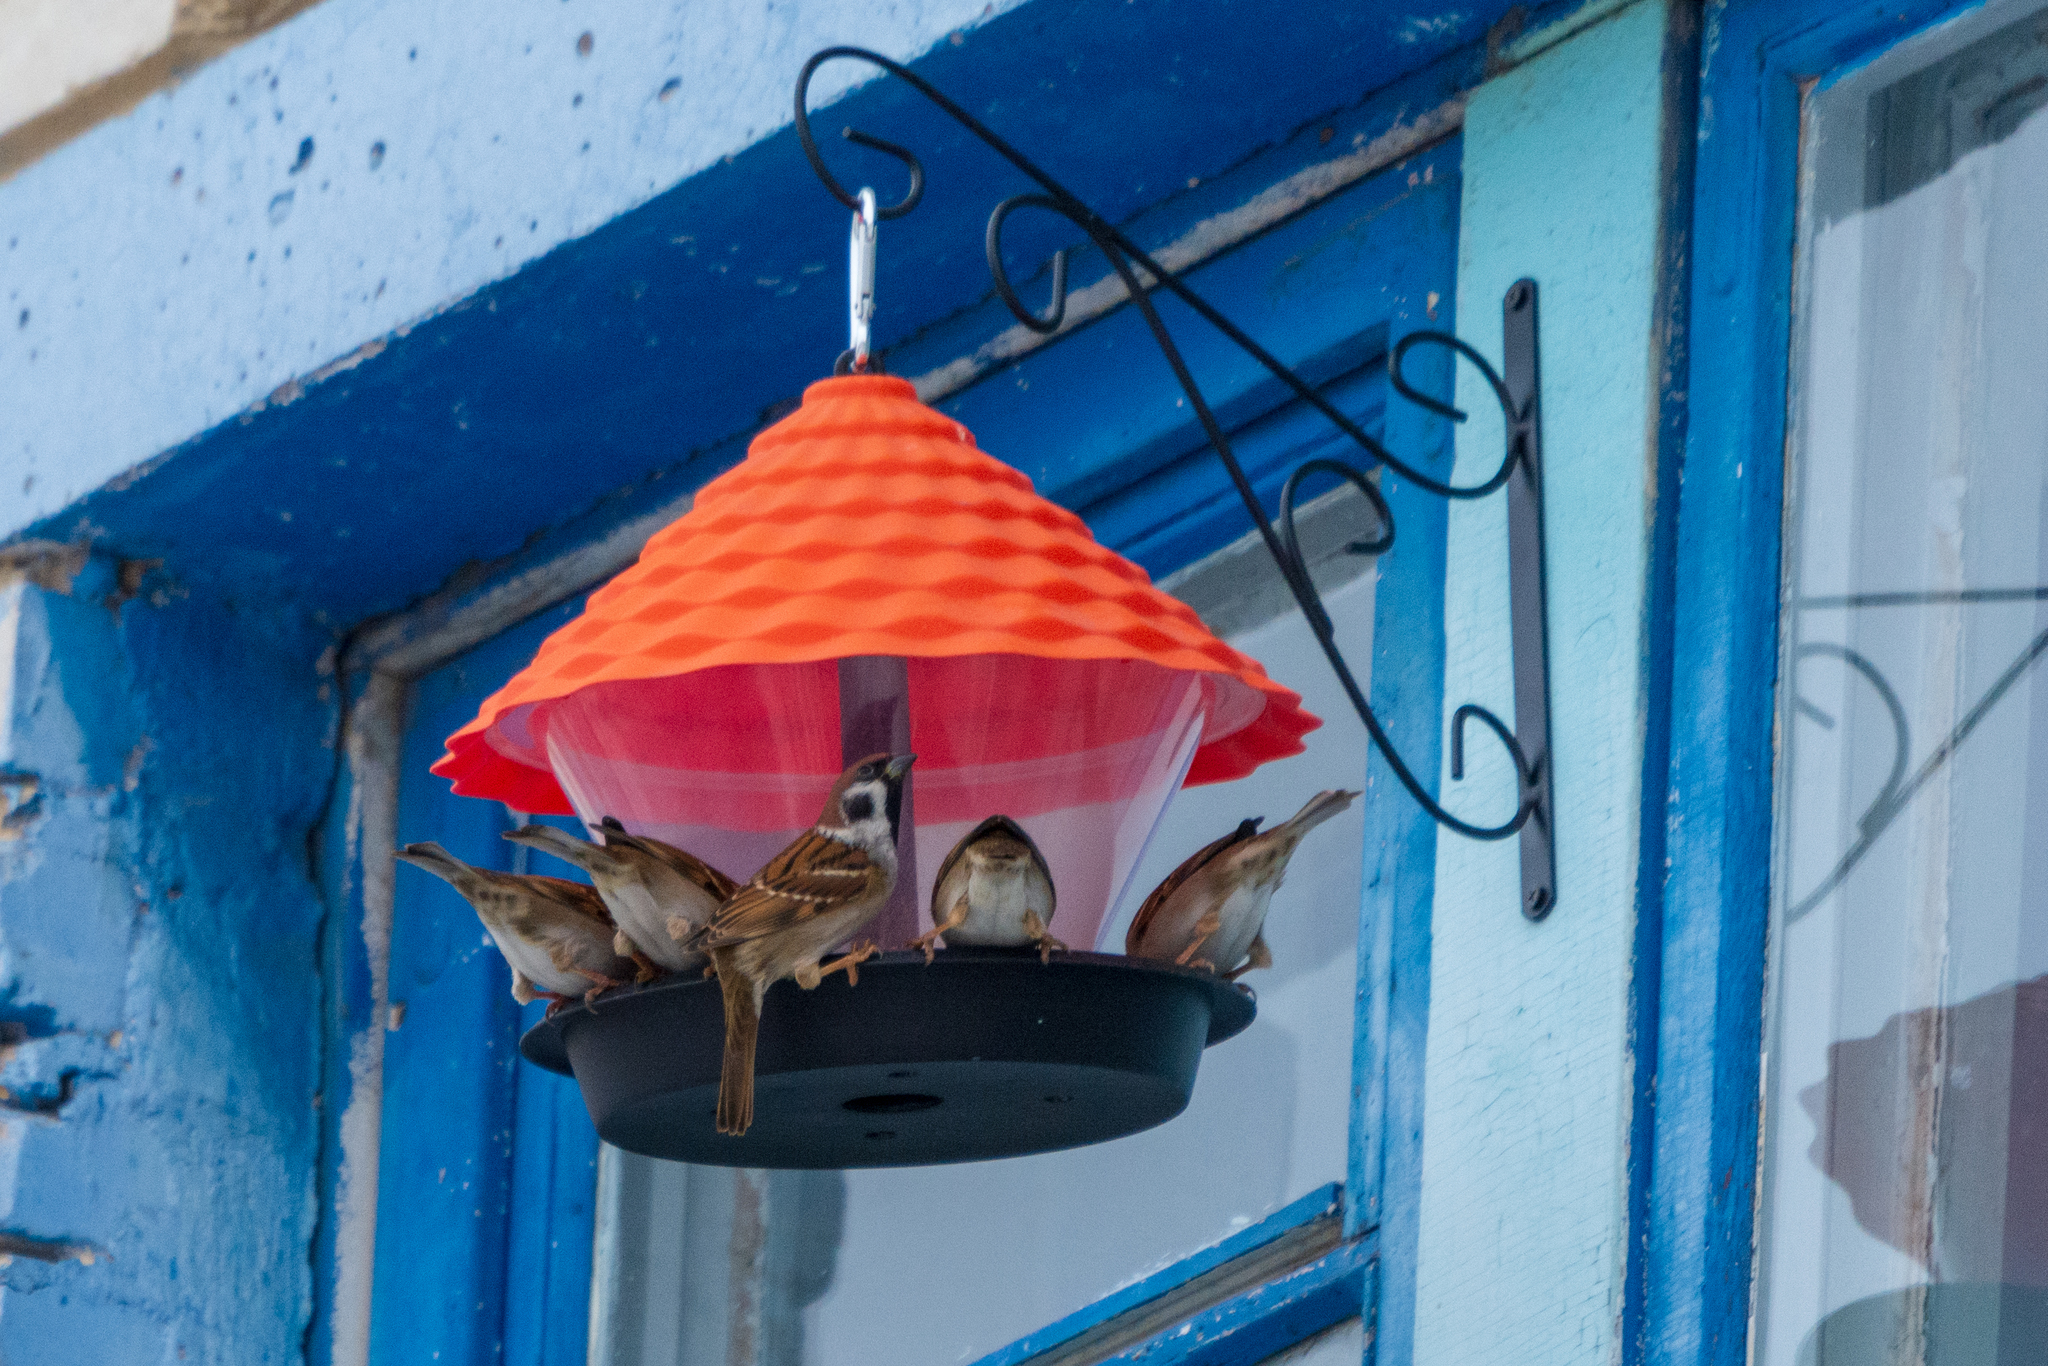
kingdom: Animalia
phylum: Chordata
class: Aves
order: Passeriformes
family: Passeridae
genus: Passer
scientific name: Passer montanus
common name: Eurasian tree sparrow
